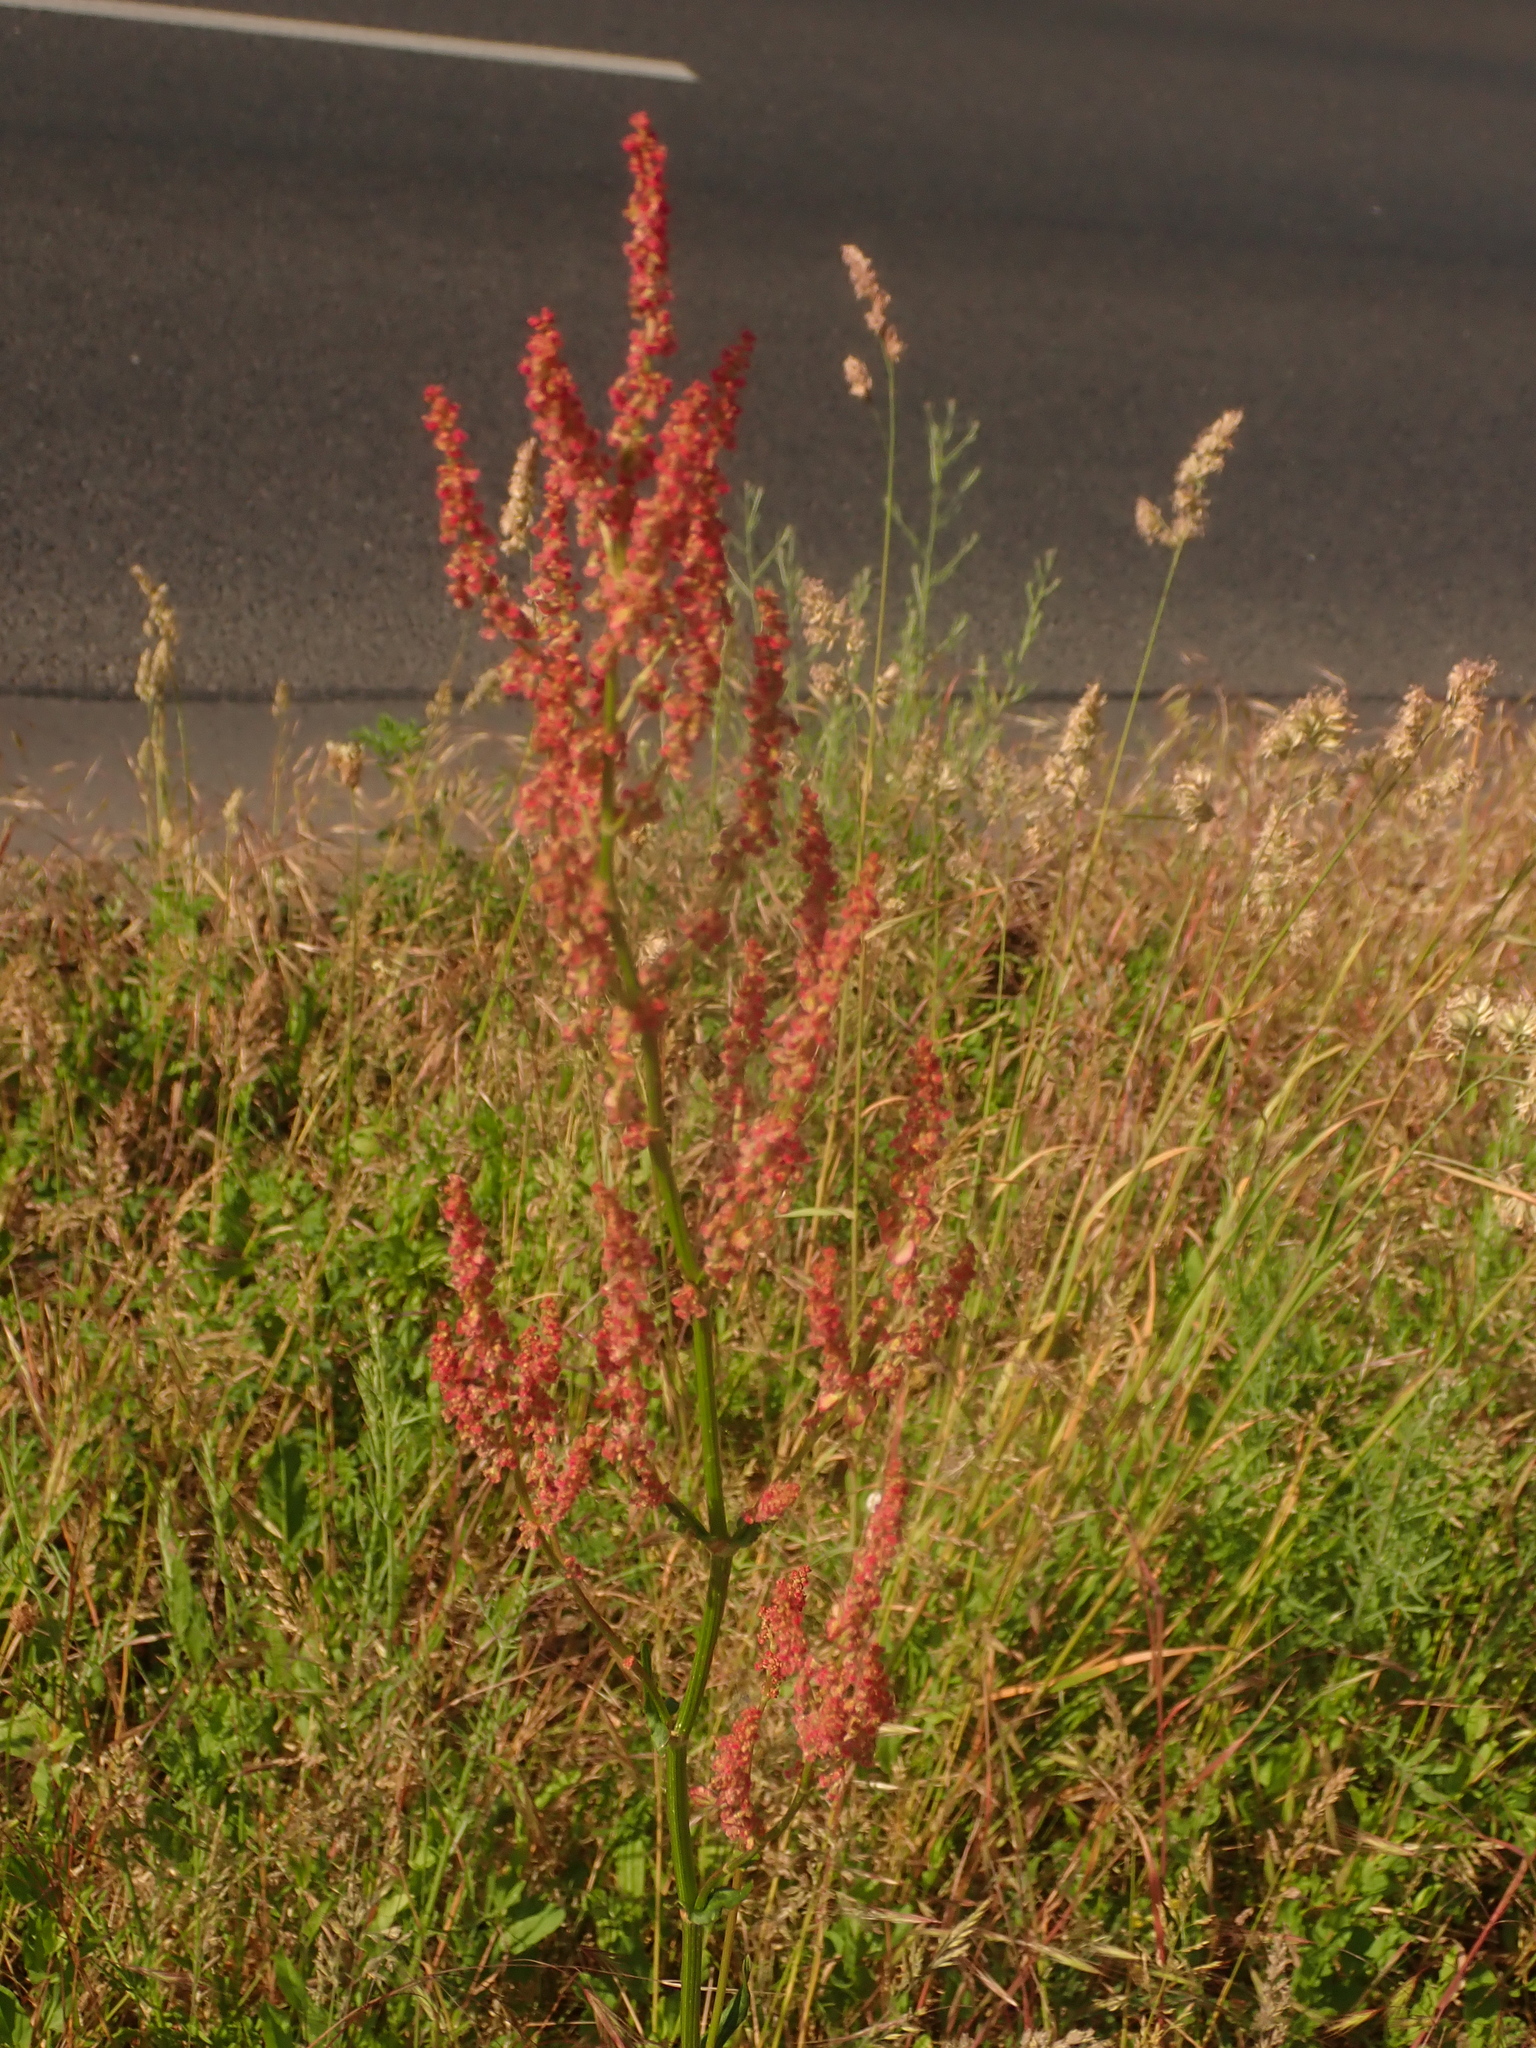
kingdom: Plantae
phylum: Tracheophyta
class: Magnoliopsida
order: Caryophyllales
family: Polygonaceae
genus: Rumex
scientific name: Rumex acetosa
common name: Garden sorrel
